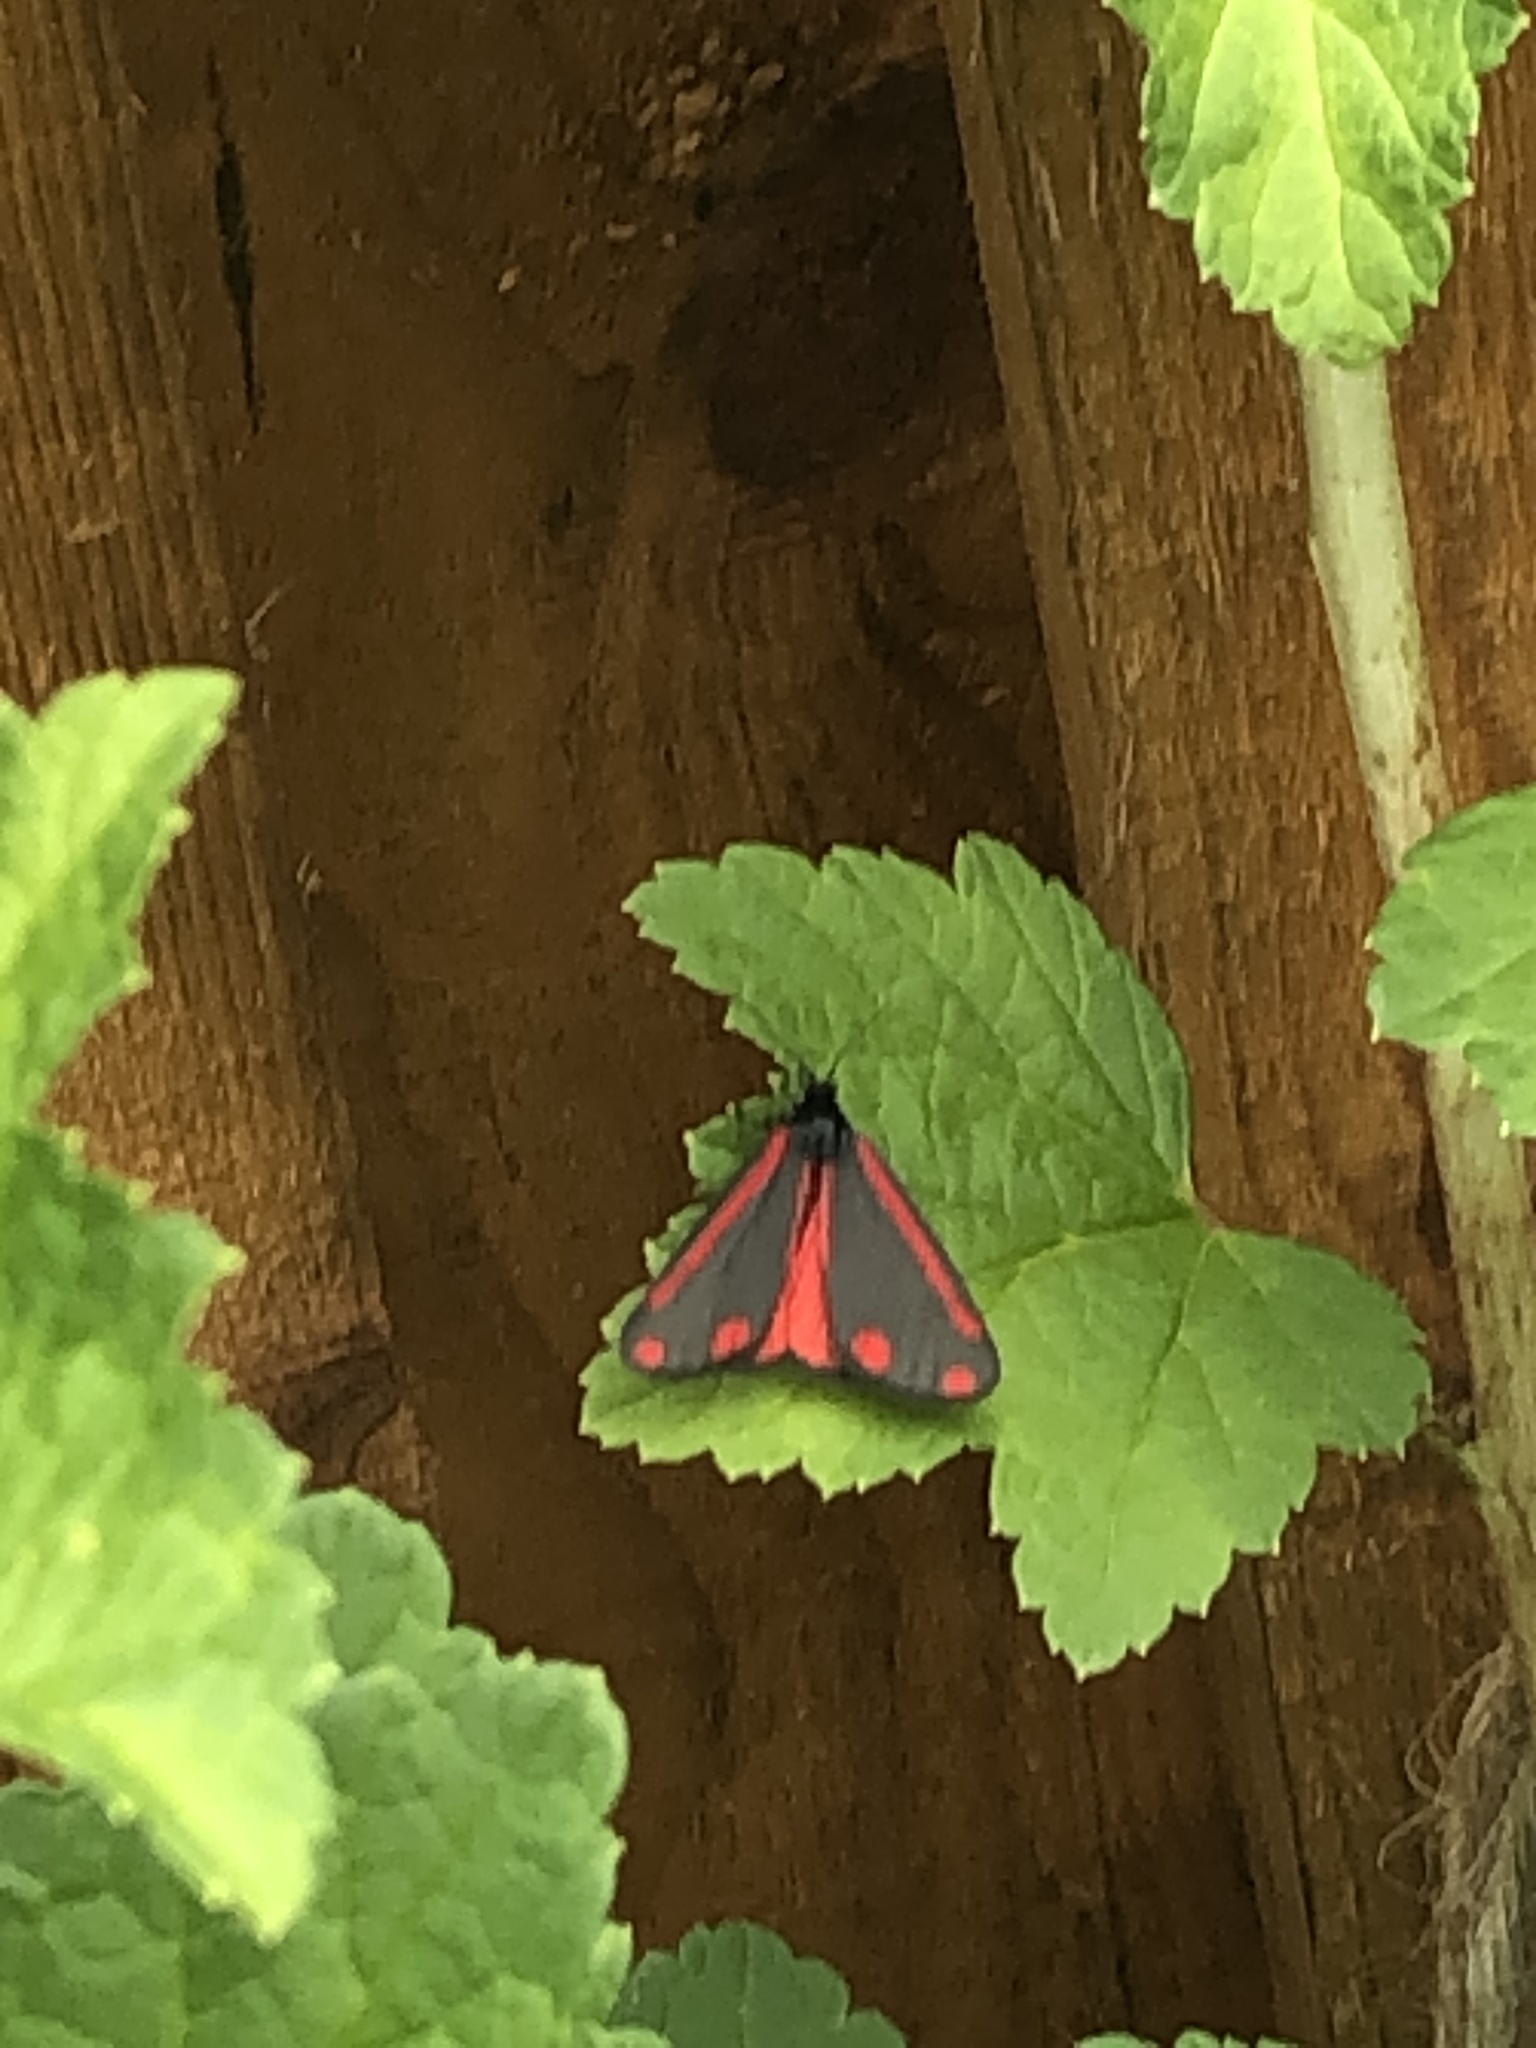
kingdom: Animalia
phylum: Arthropoda
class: Insecta
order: Lepidoptera
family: Erebidae
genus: Tyria
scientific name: Tyria jacobaeae
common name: Cinnabar
